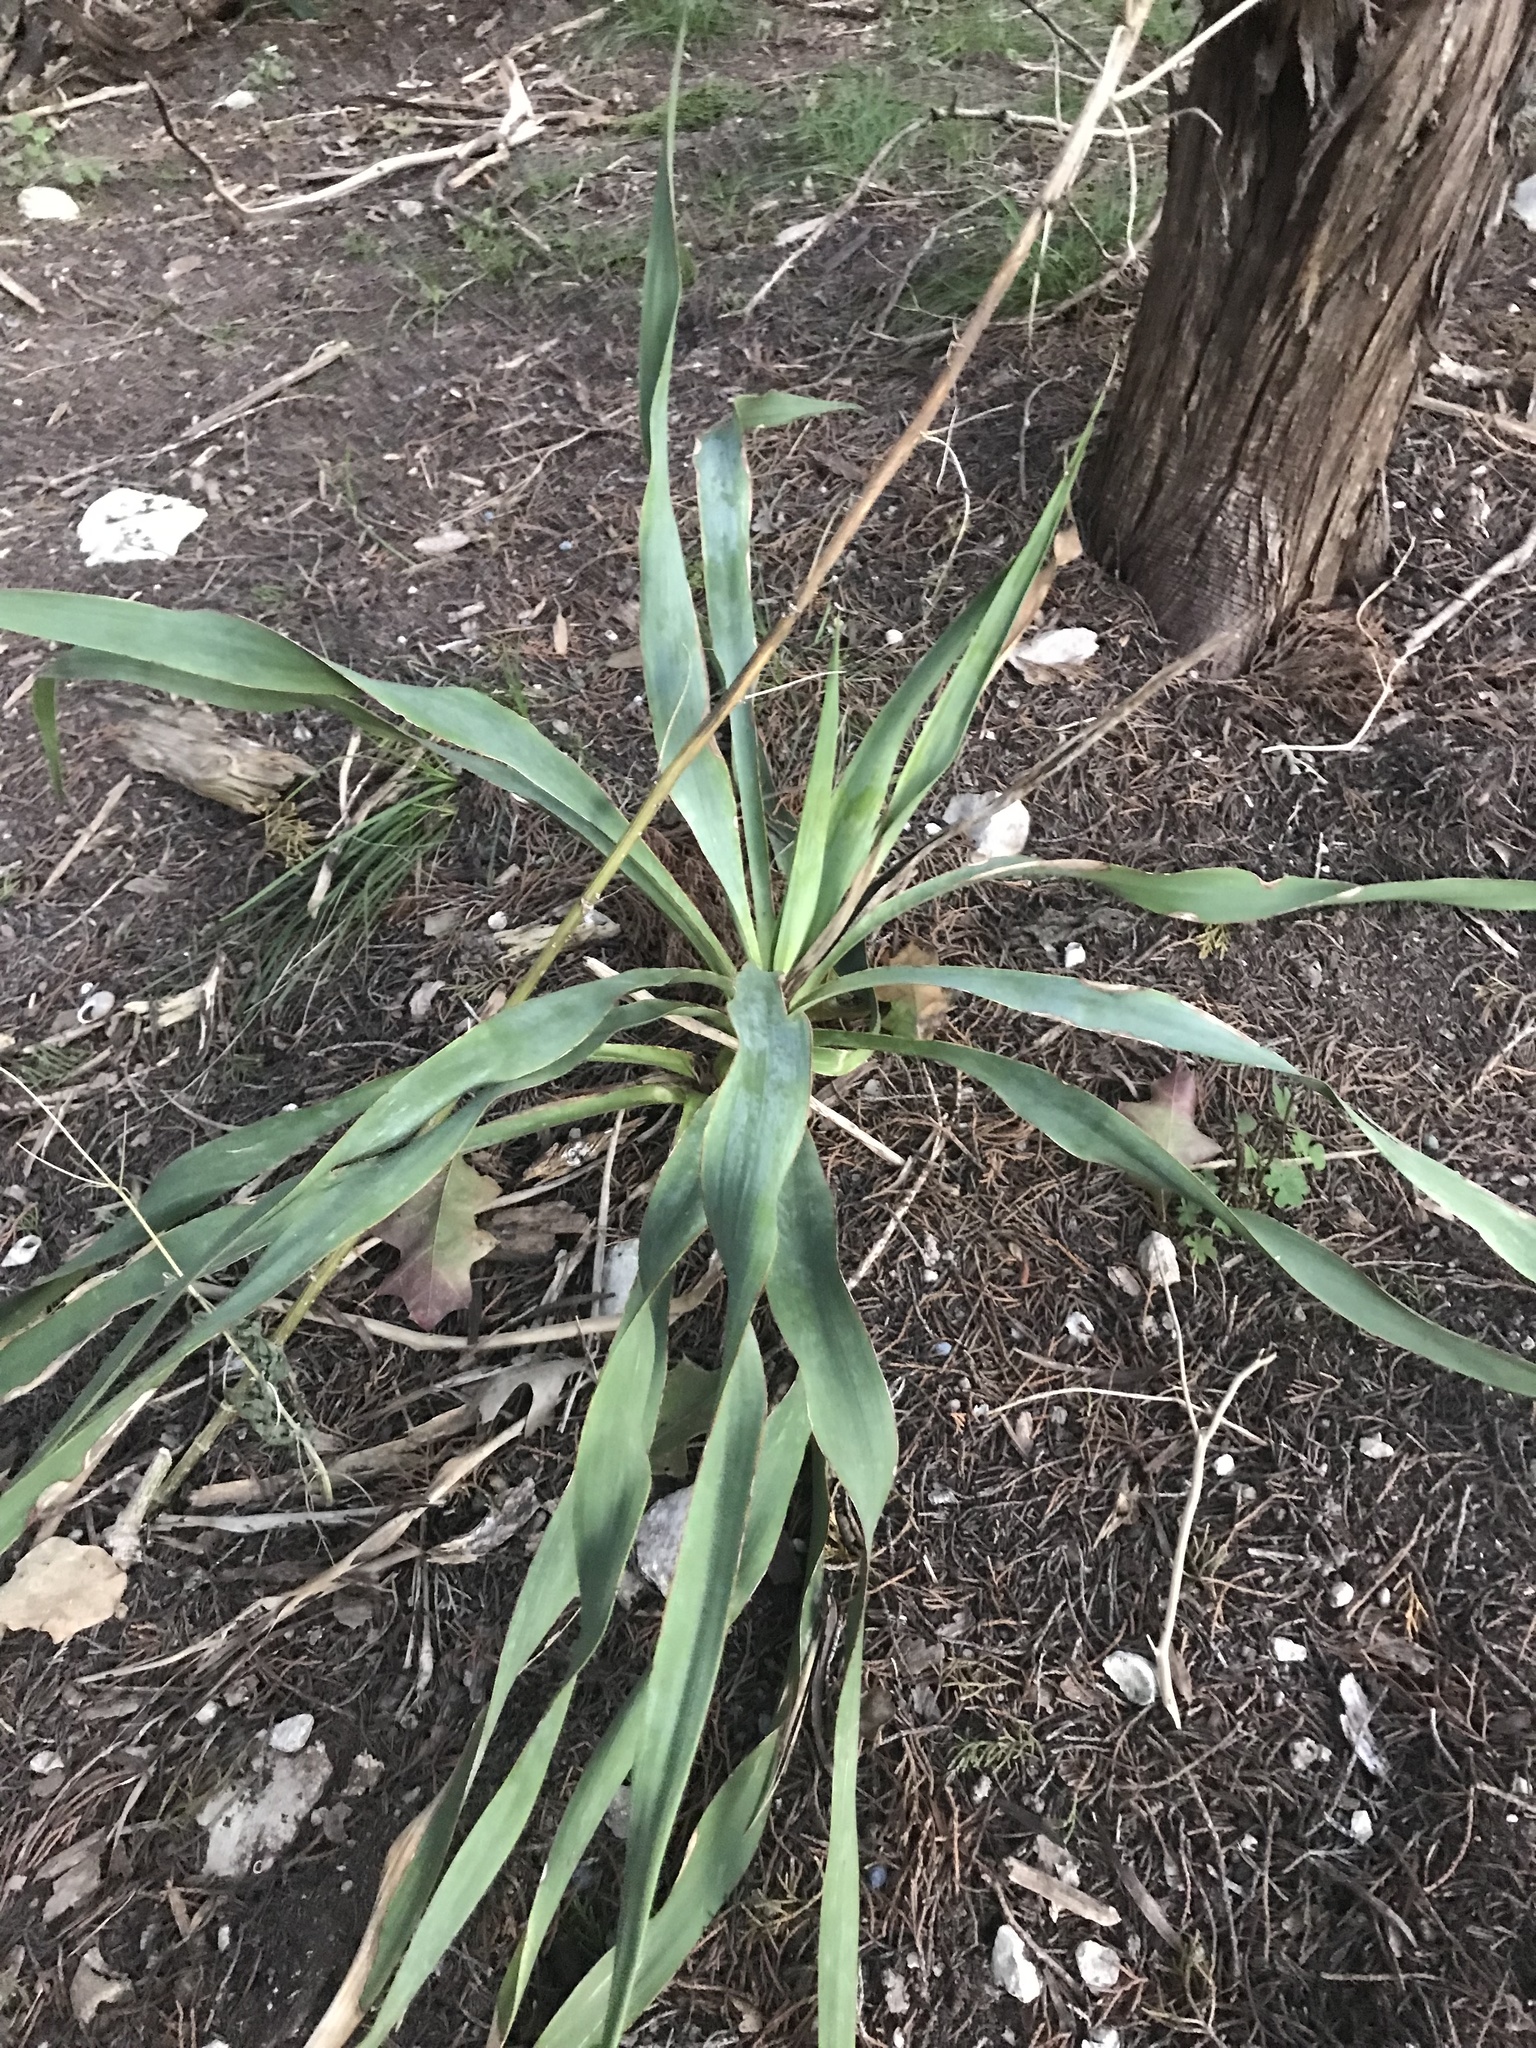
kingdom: Plantae
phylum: Tracheophyta
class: Liliopsida
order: Asparagales
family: Asparagaceae
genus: Yucca
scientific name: Yucca rupicola
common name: Twisted-leaf spanish-dagger
